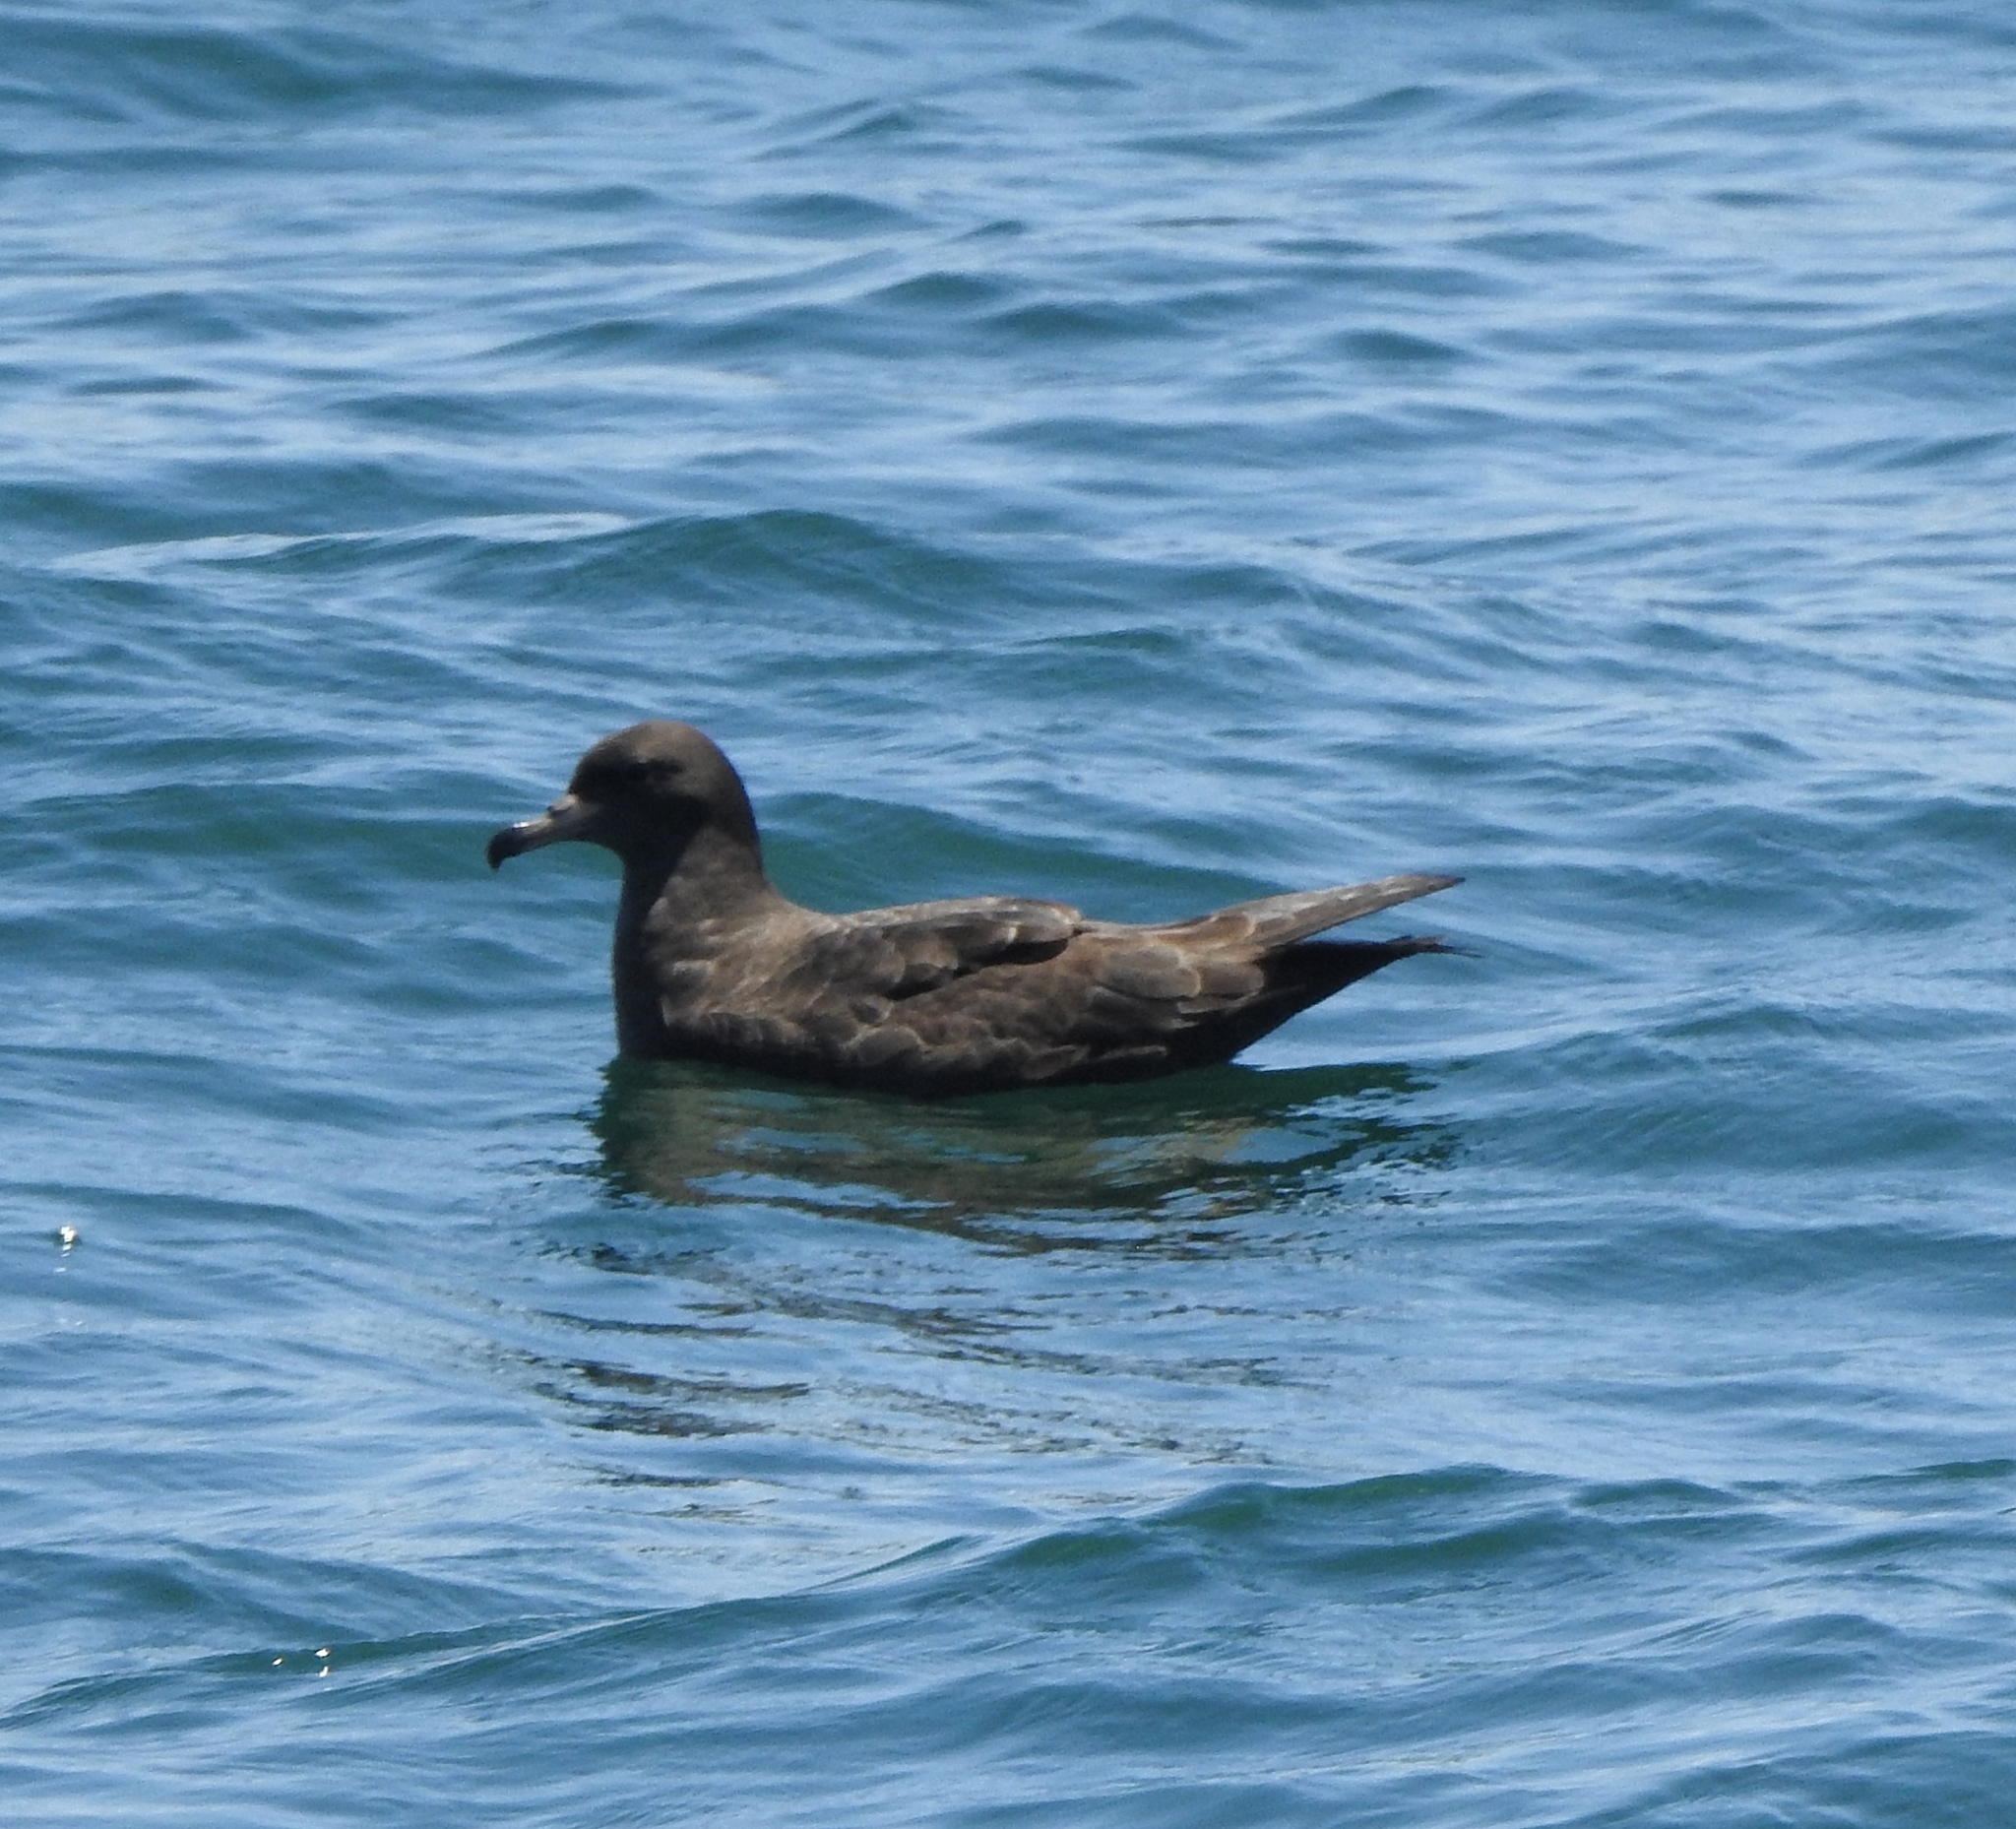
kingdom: Animalia
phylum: Chordata
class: Aves
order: Procellariiformes
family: Procellariidae
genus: Puffinus
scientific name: Puffinus carneipes
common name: Flesh-footed shearwater
